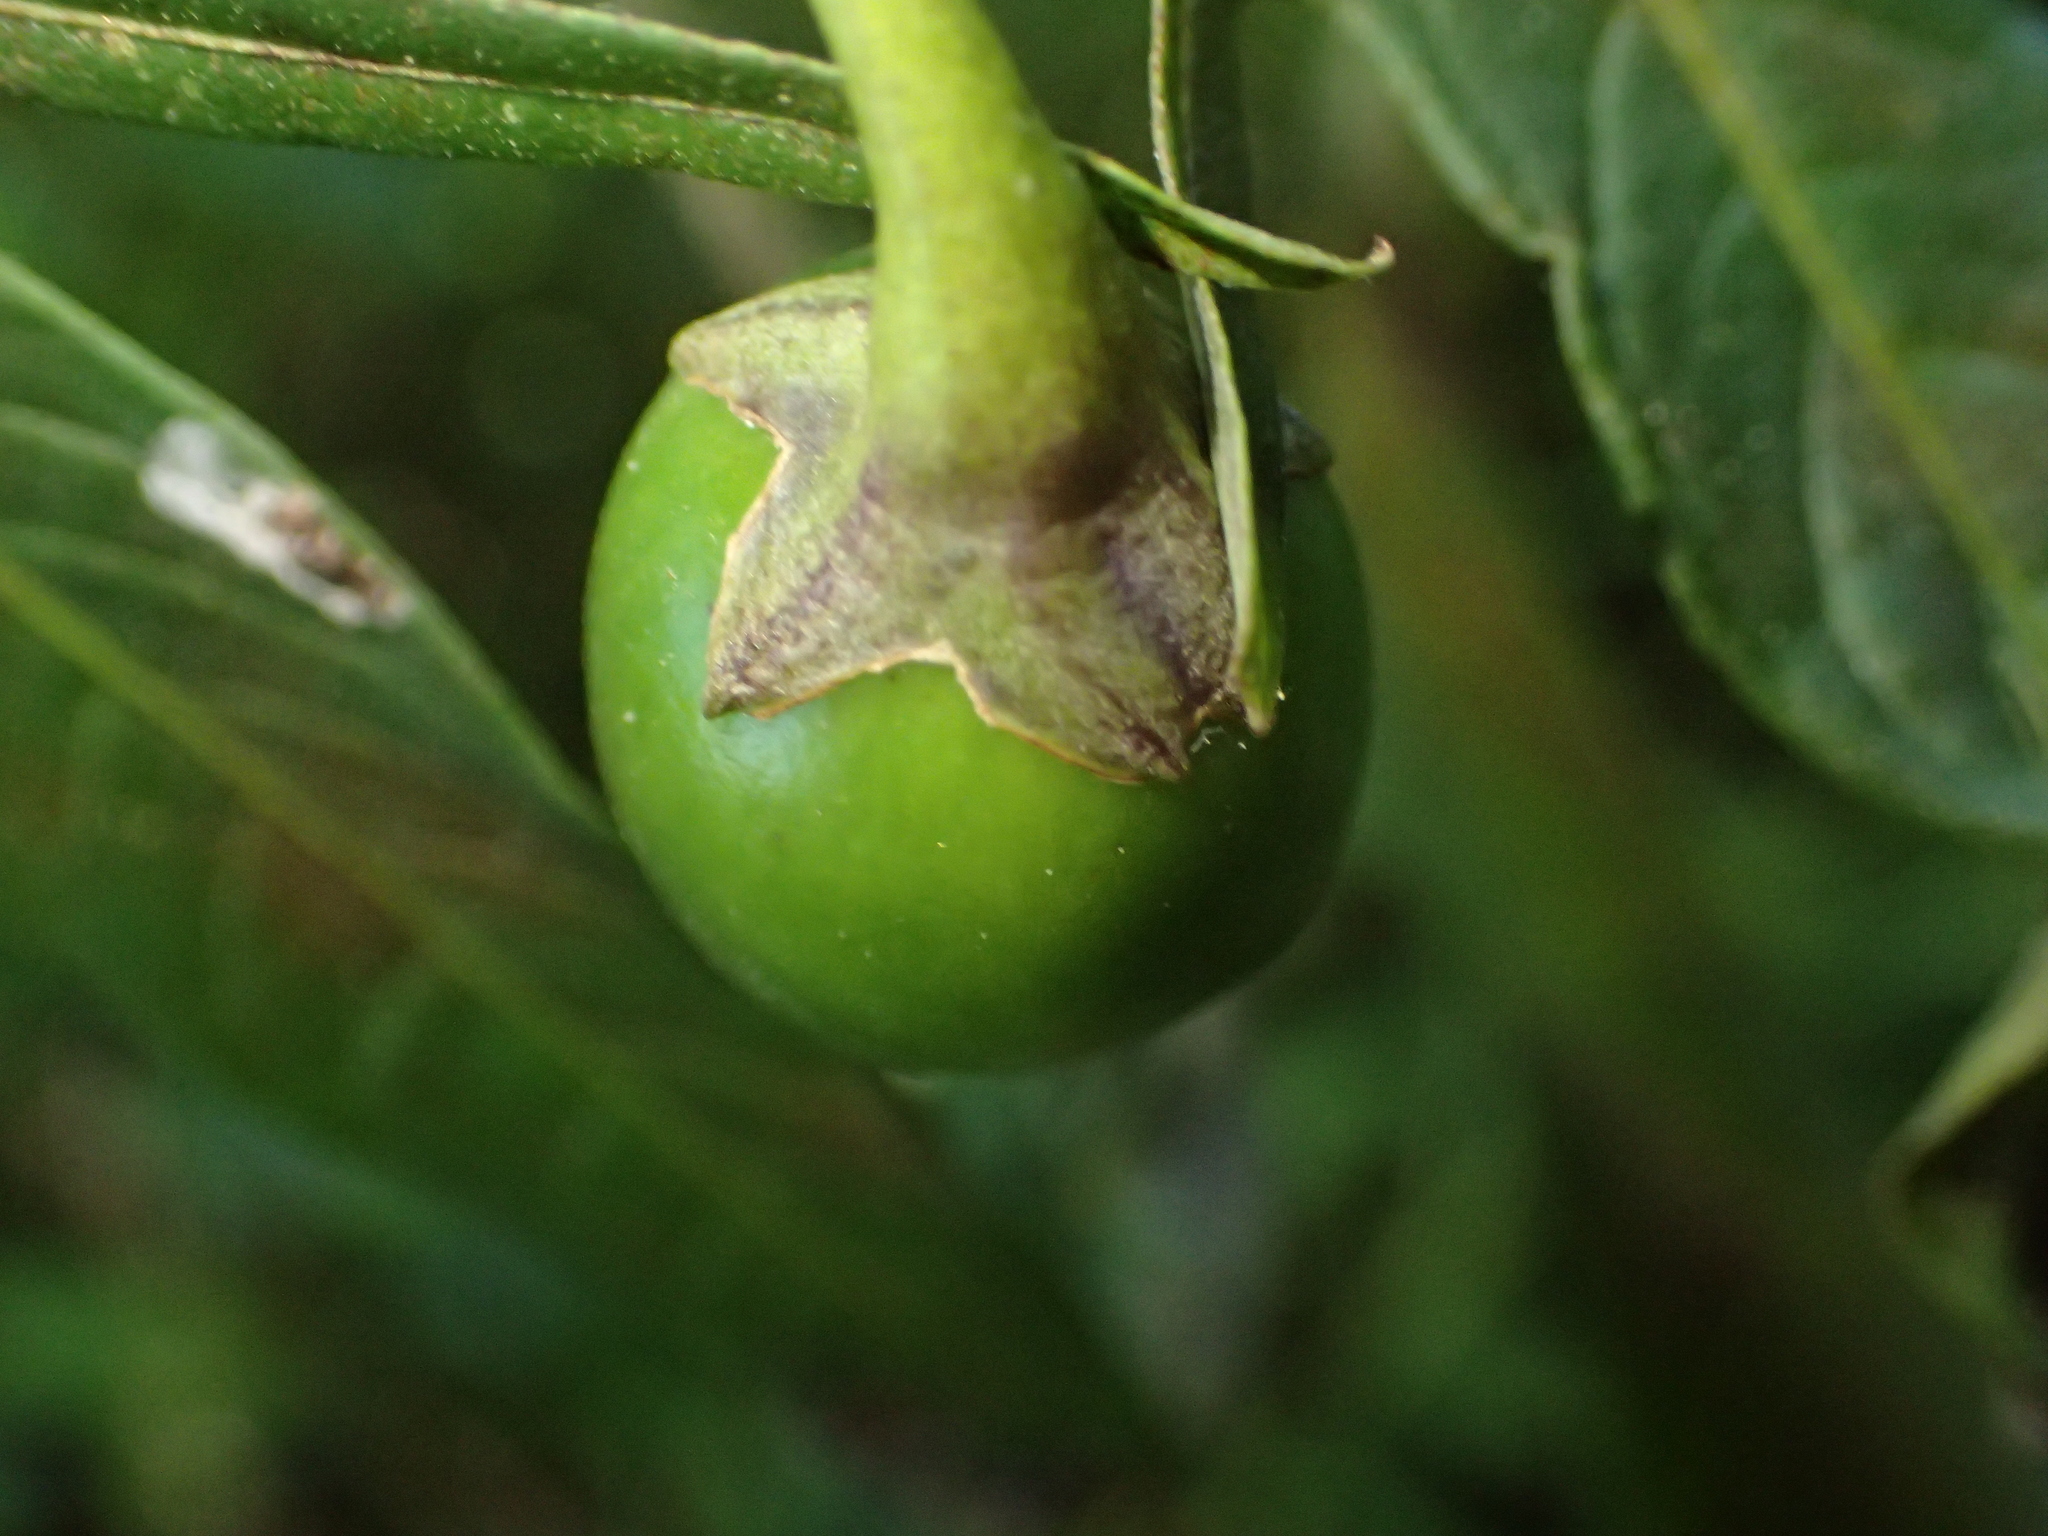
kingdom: Plantae
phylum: Tracheophyta
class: Magnoliopsida
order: Solanales
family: Solanaceae
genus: Solanum
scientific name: Solanum laciniatum
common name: Kangaroo-apple
